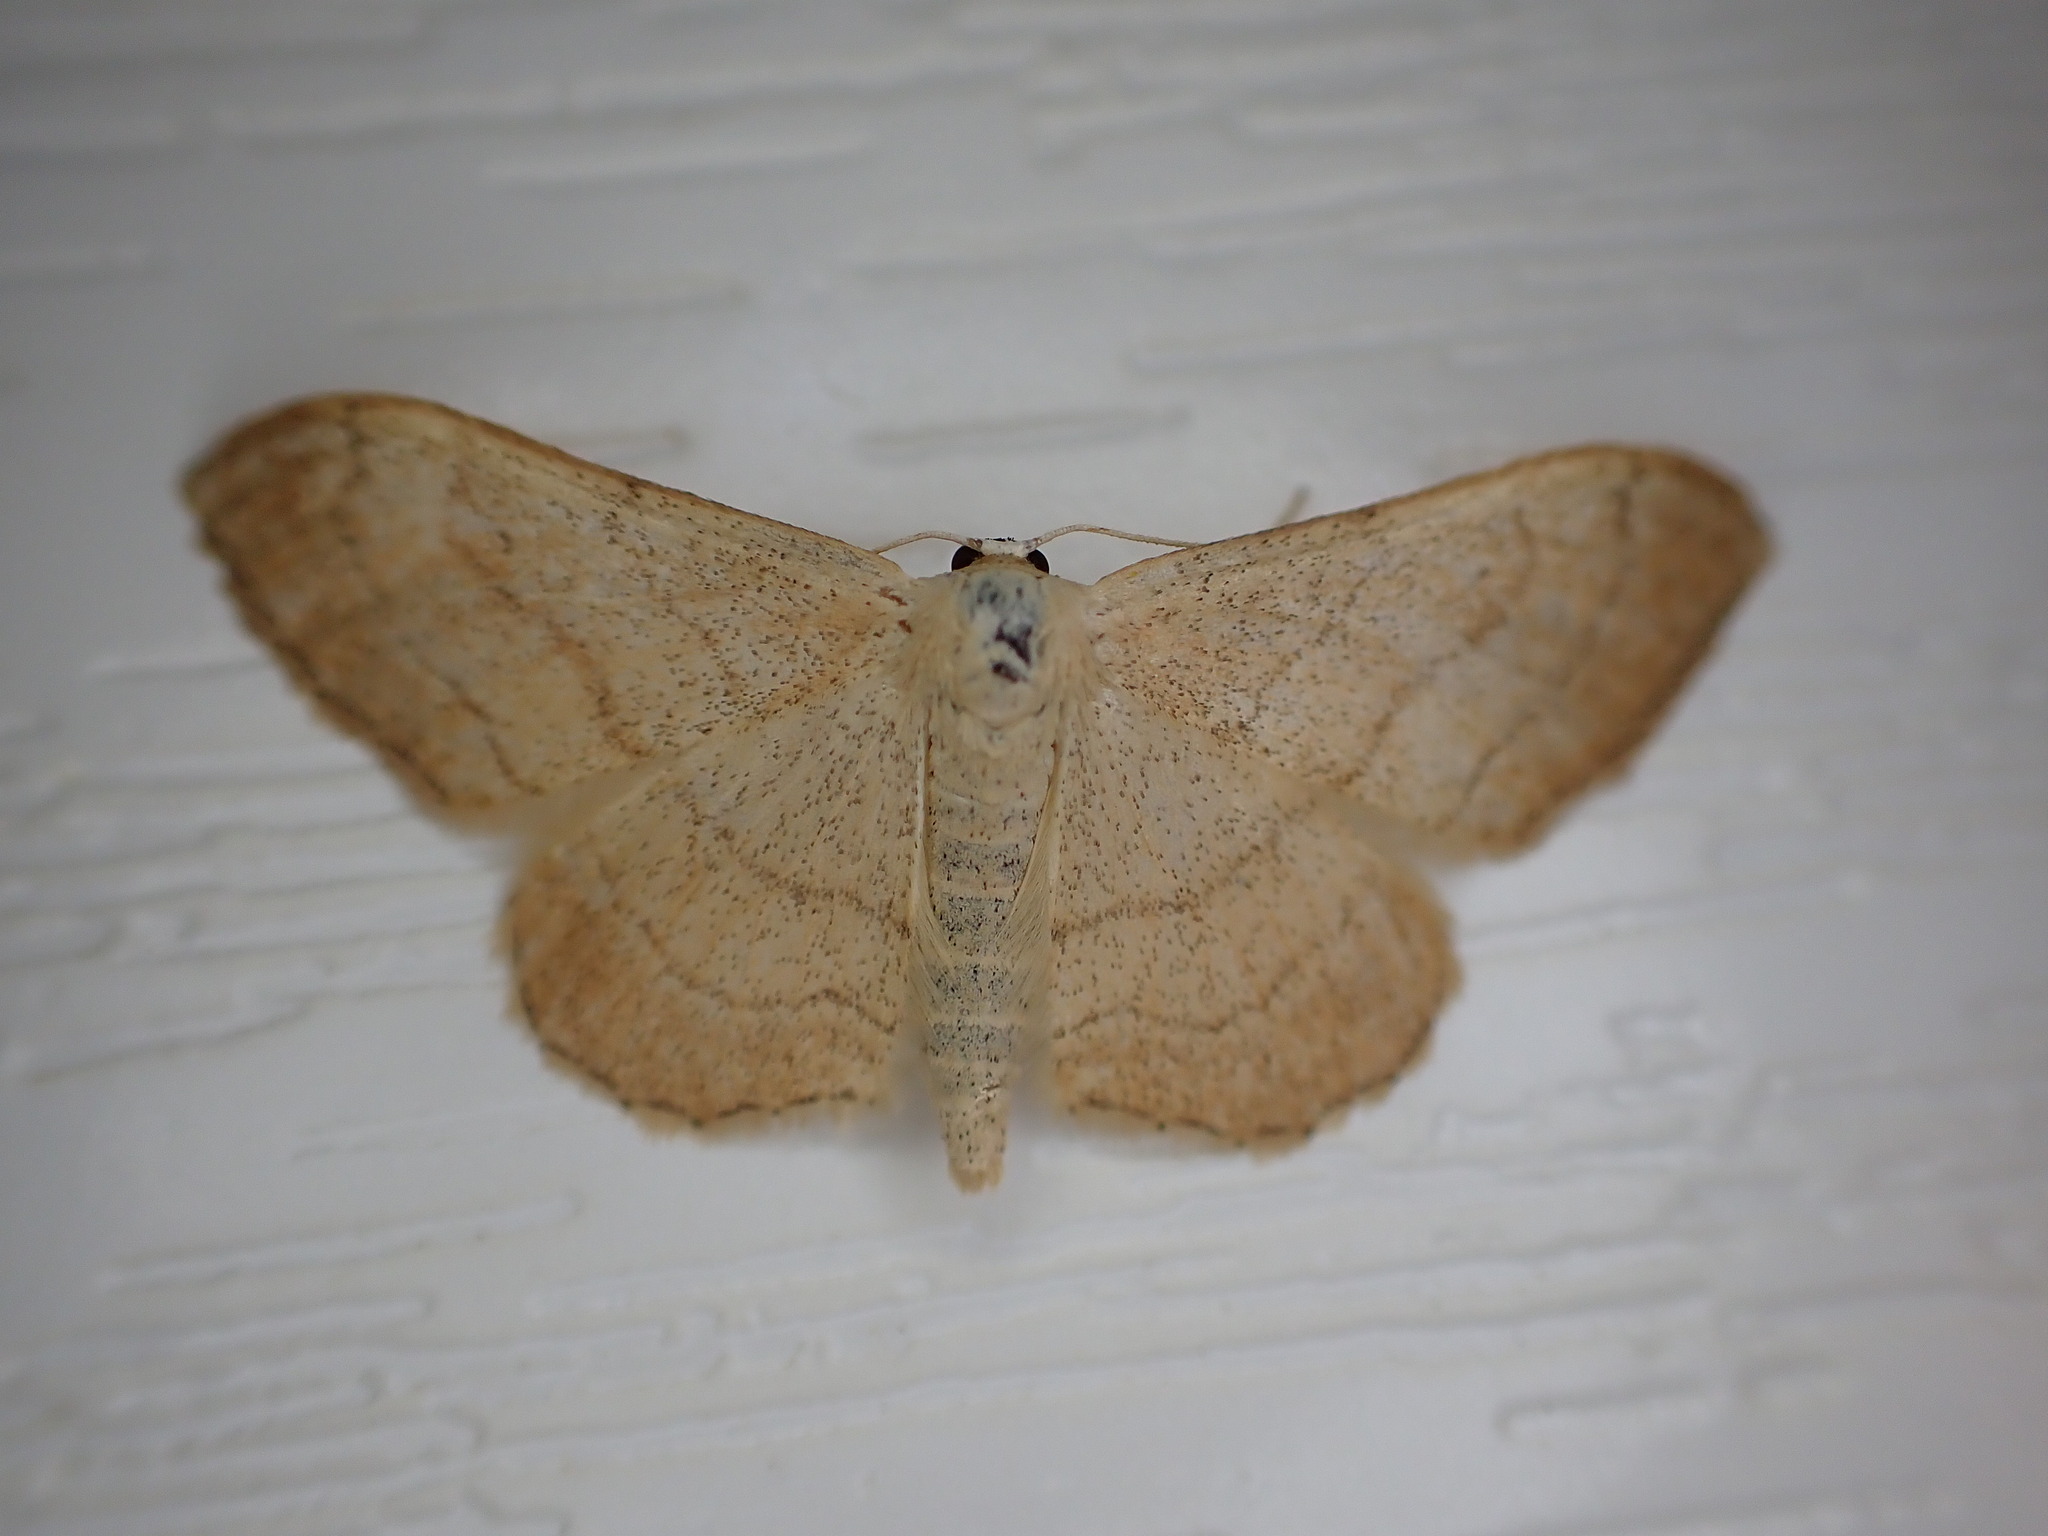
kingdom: Animalia
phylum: Arthropoda
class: Insecta
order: Lepidoptera
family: Geometridae
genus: Idaea
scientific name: Idaea aversata
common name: Riband wave
